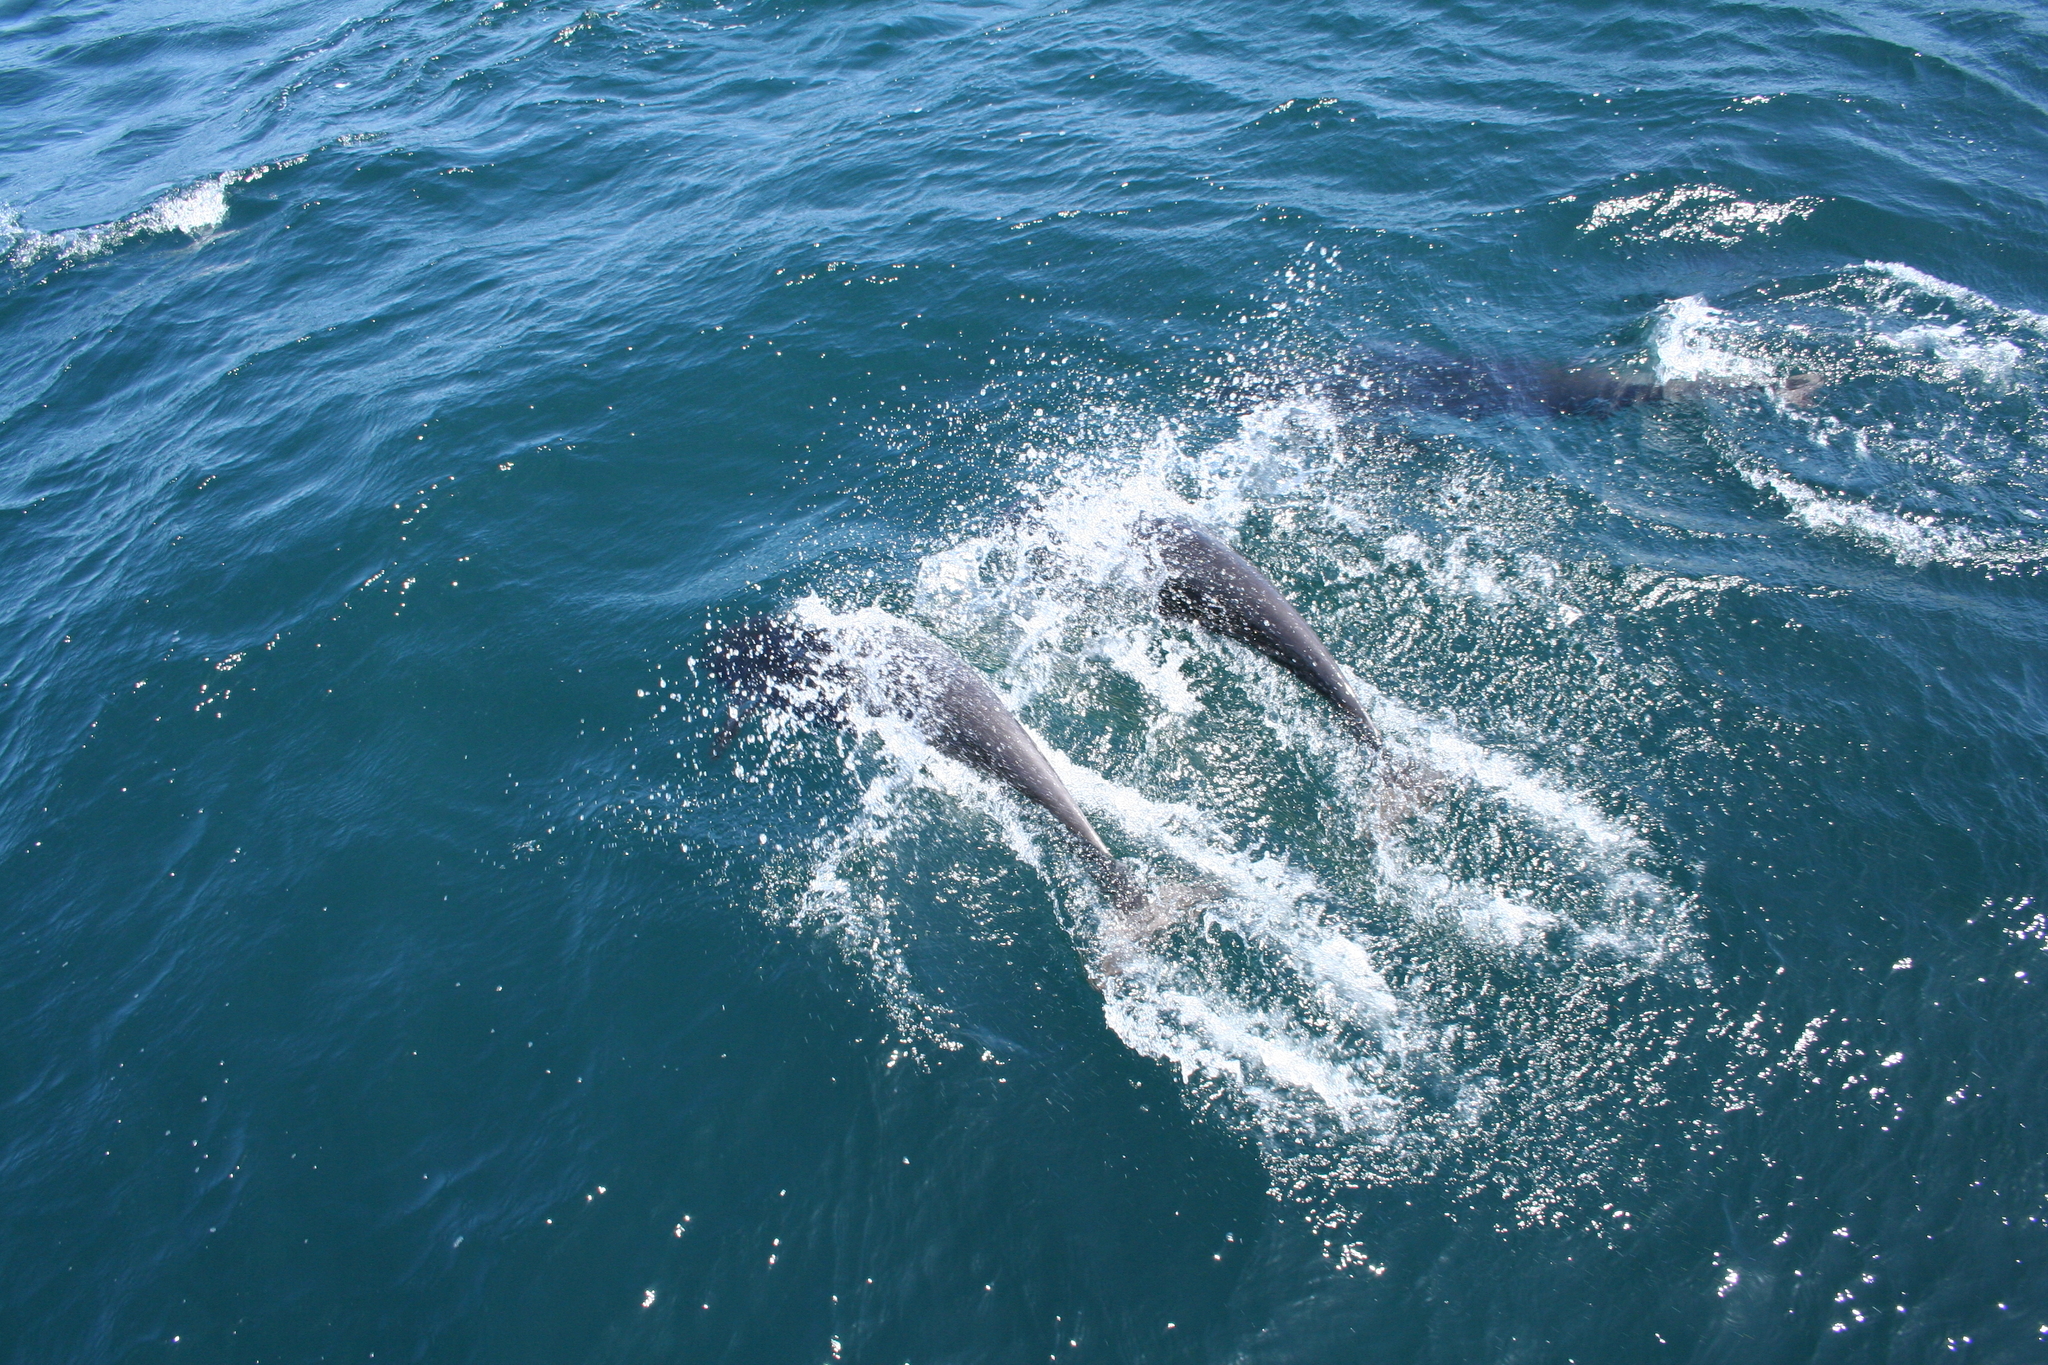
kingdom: Animalia
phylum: Chordata
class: Mammalia
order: Cetacea
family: Delphinidae
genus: Lissodelphis
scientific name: Lissodelphis borealis
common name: Northern right whale dolphin
